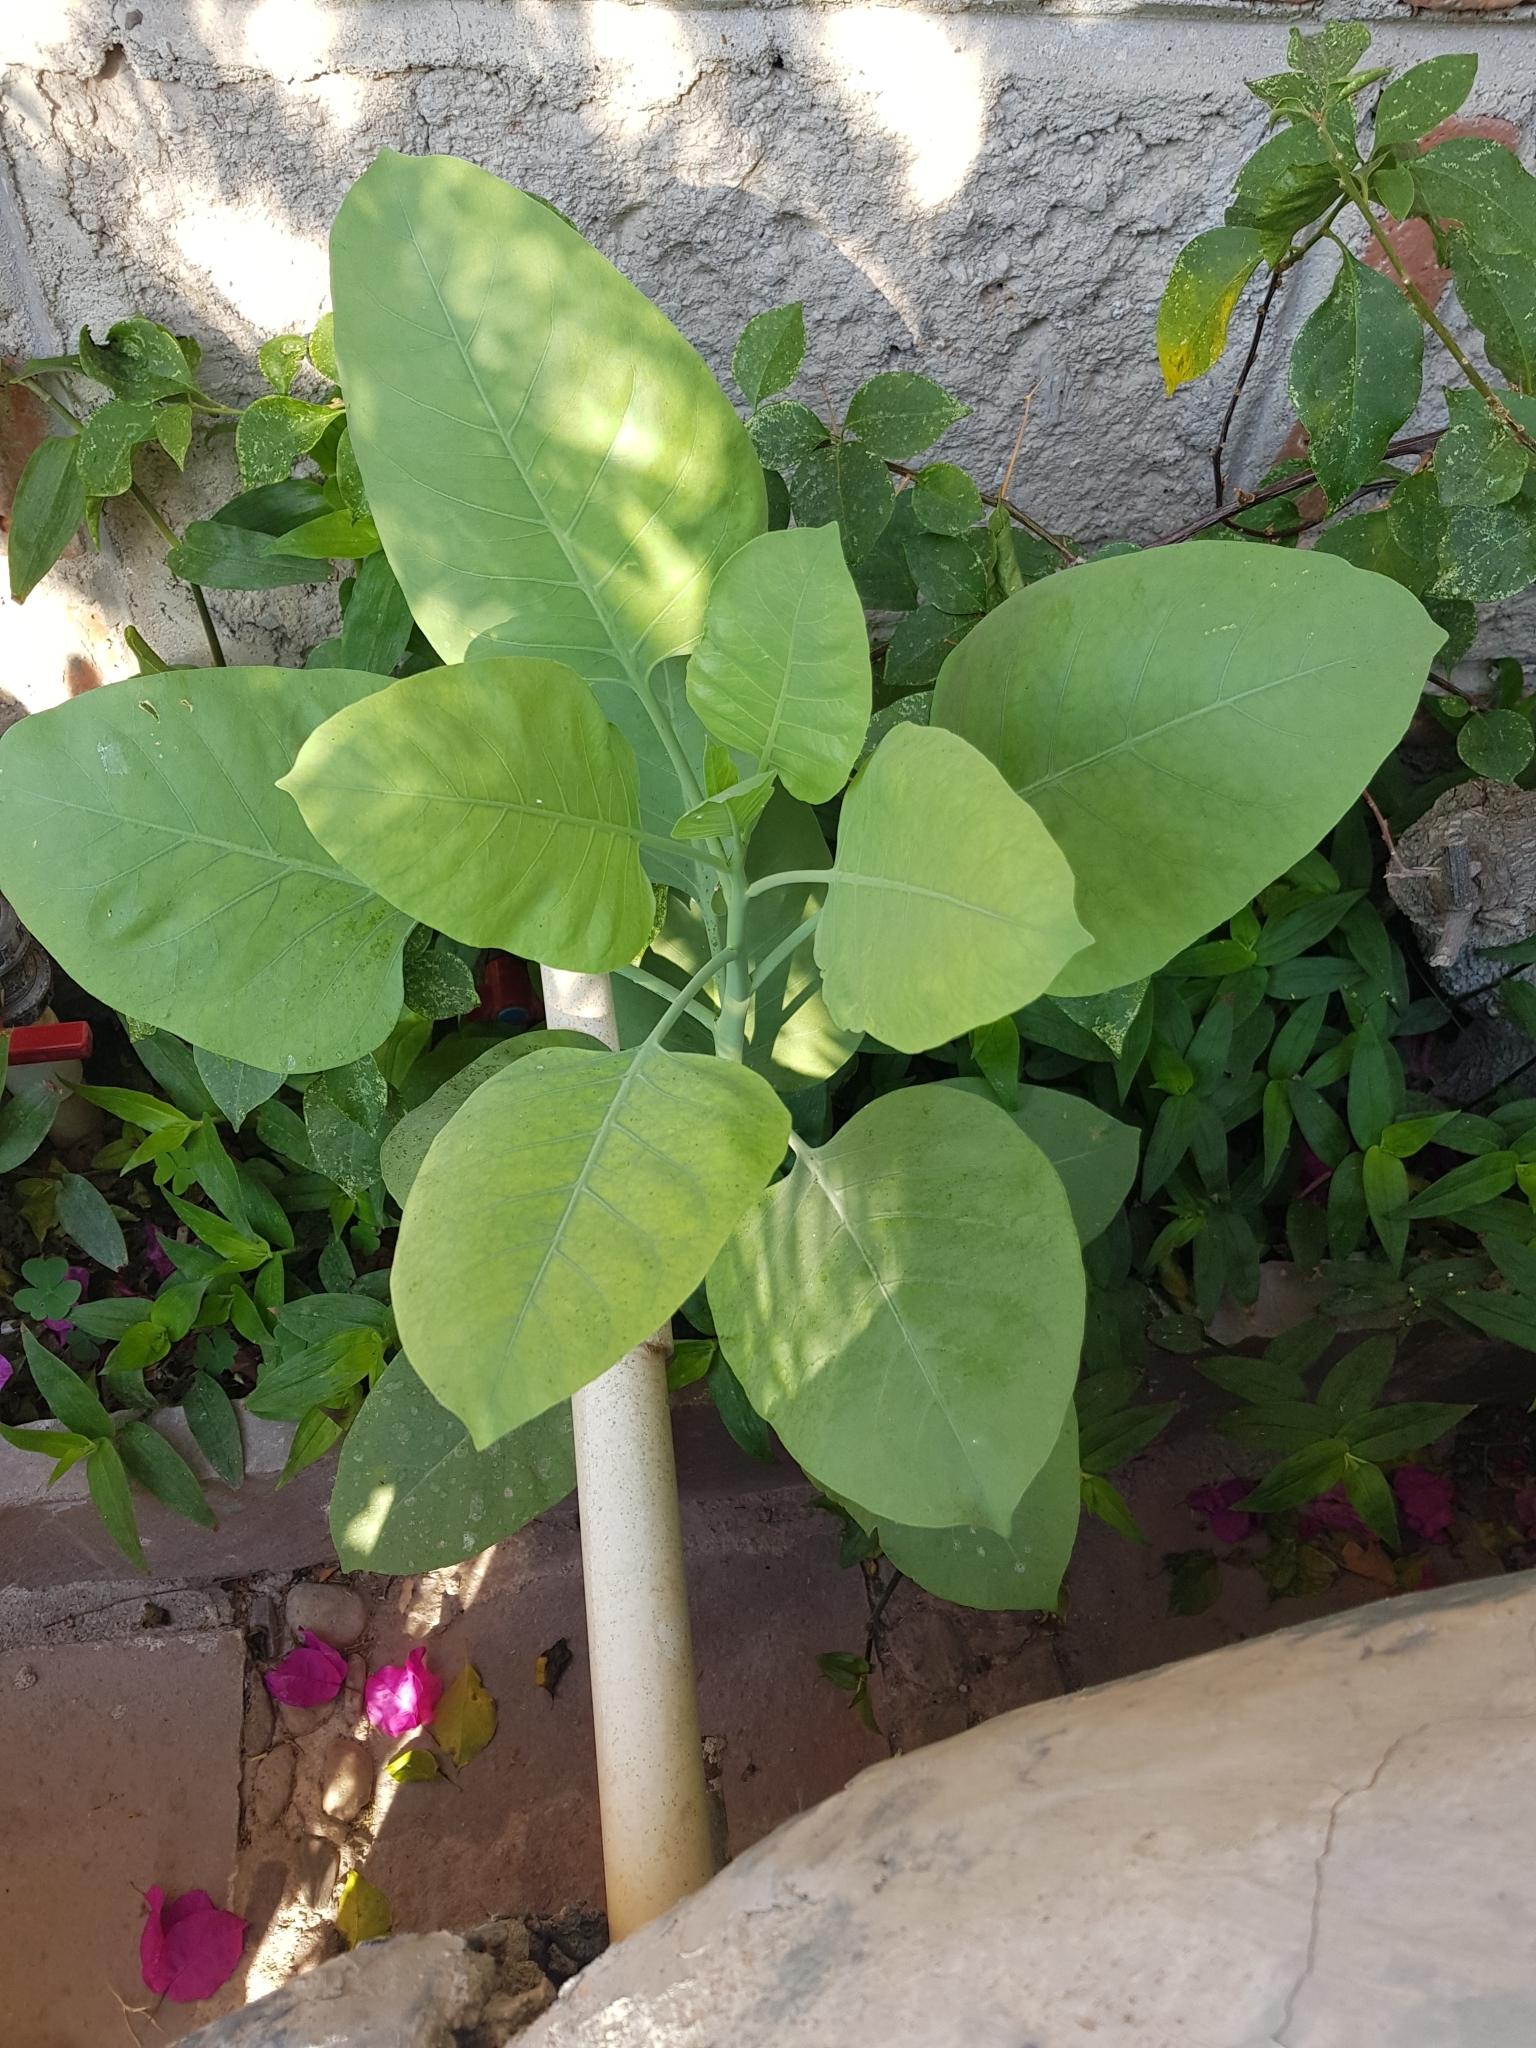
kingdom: Plantae
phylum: Tracheophyta
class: Magnoliopsida
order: Solanales
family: Solanaceae
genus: Nicotiana
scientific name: Nicotiana glauca
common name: Tree tobacco
